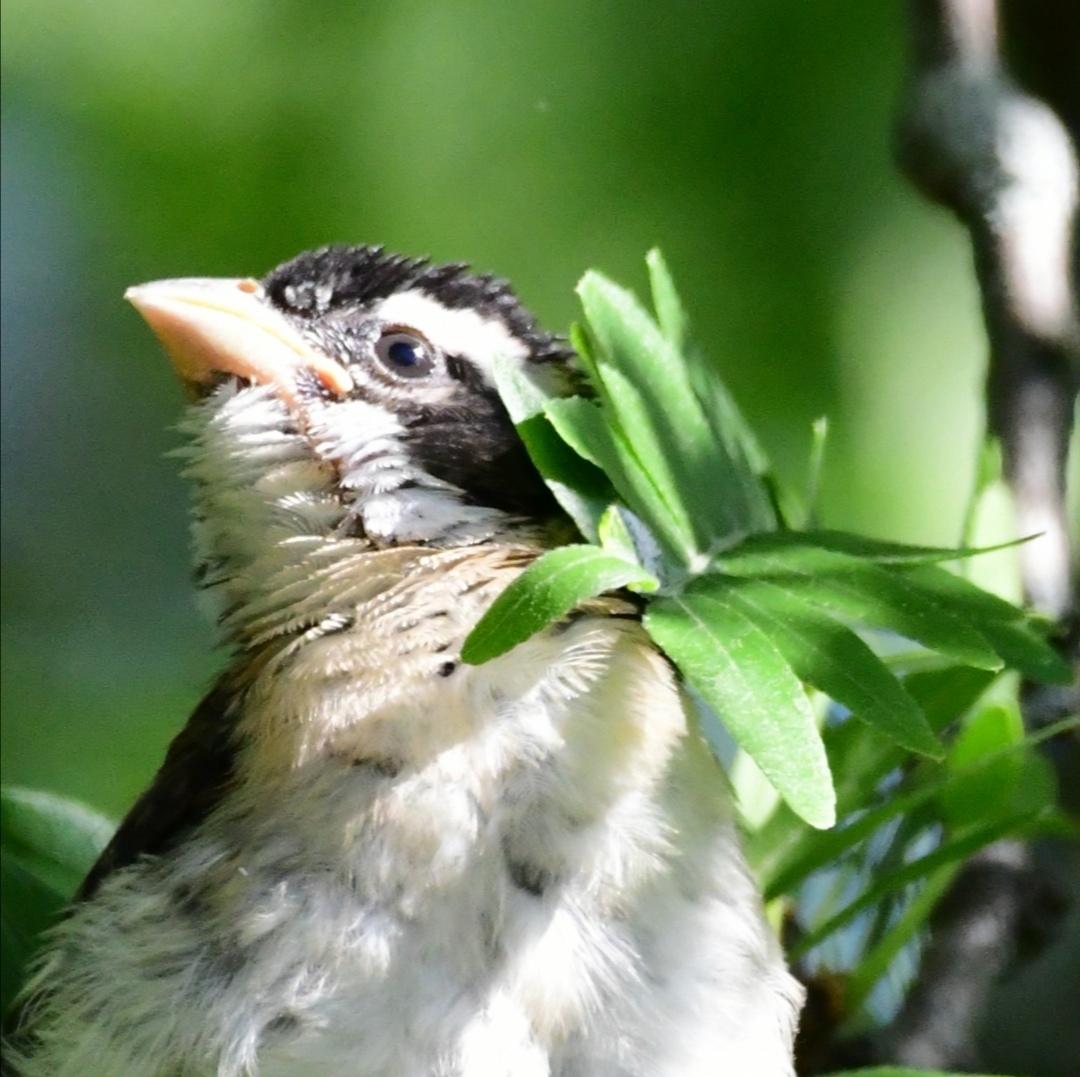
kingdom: Animalia
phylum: Chordata
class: Aves
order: Passeriformes
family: Cardinalidae
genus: Pheucticus
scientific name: Pheucticus ludovicianus
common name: Rose-breasted grosbeak
